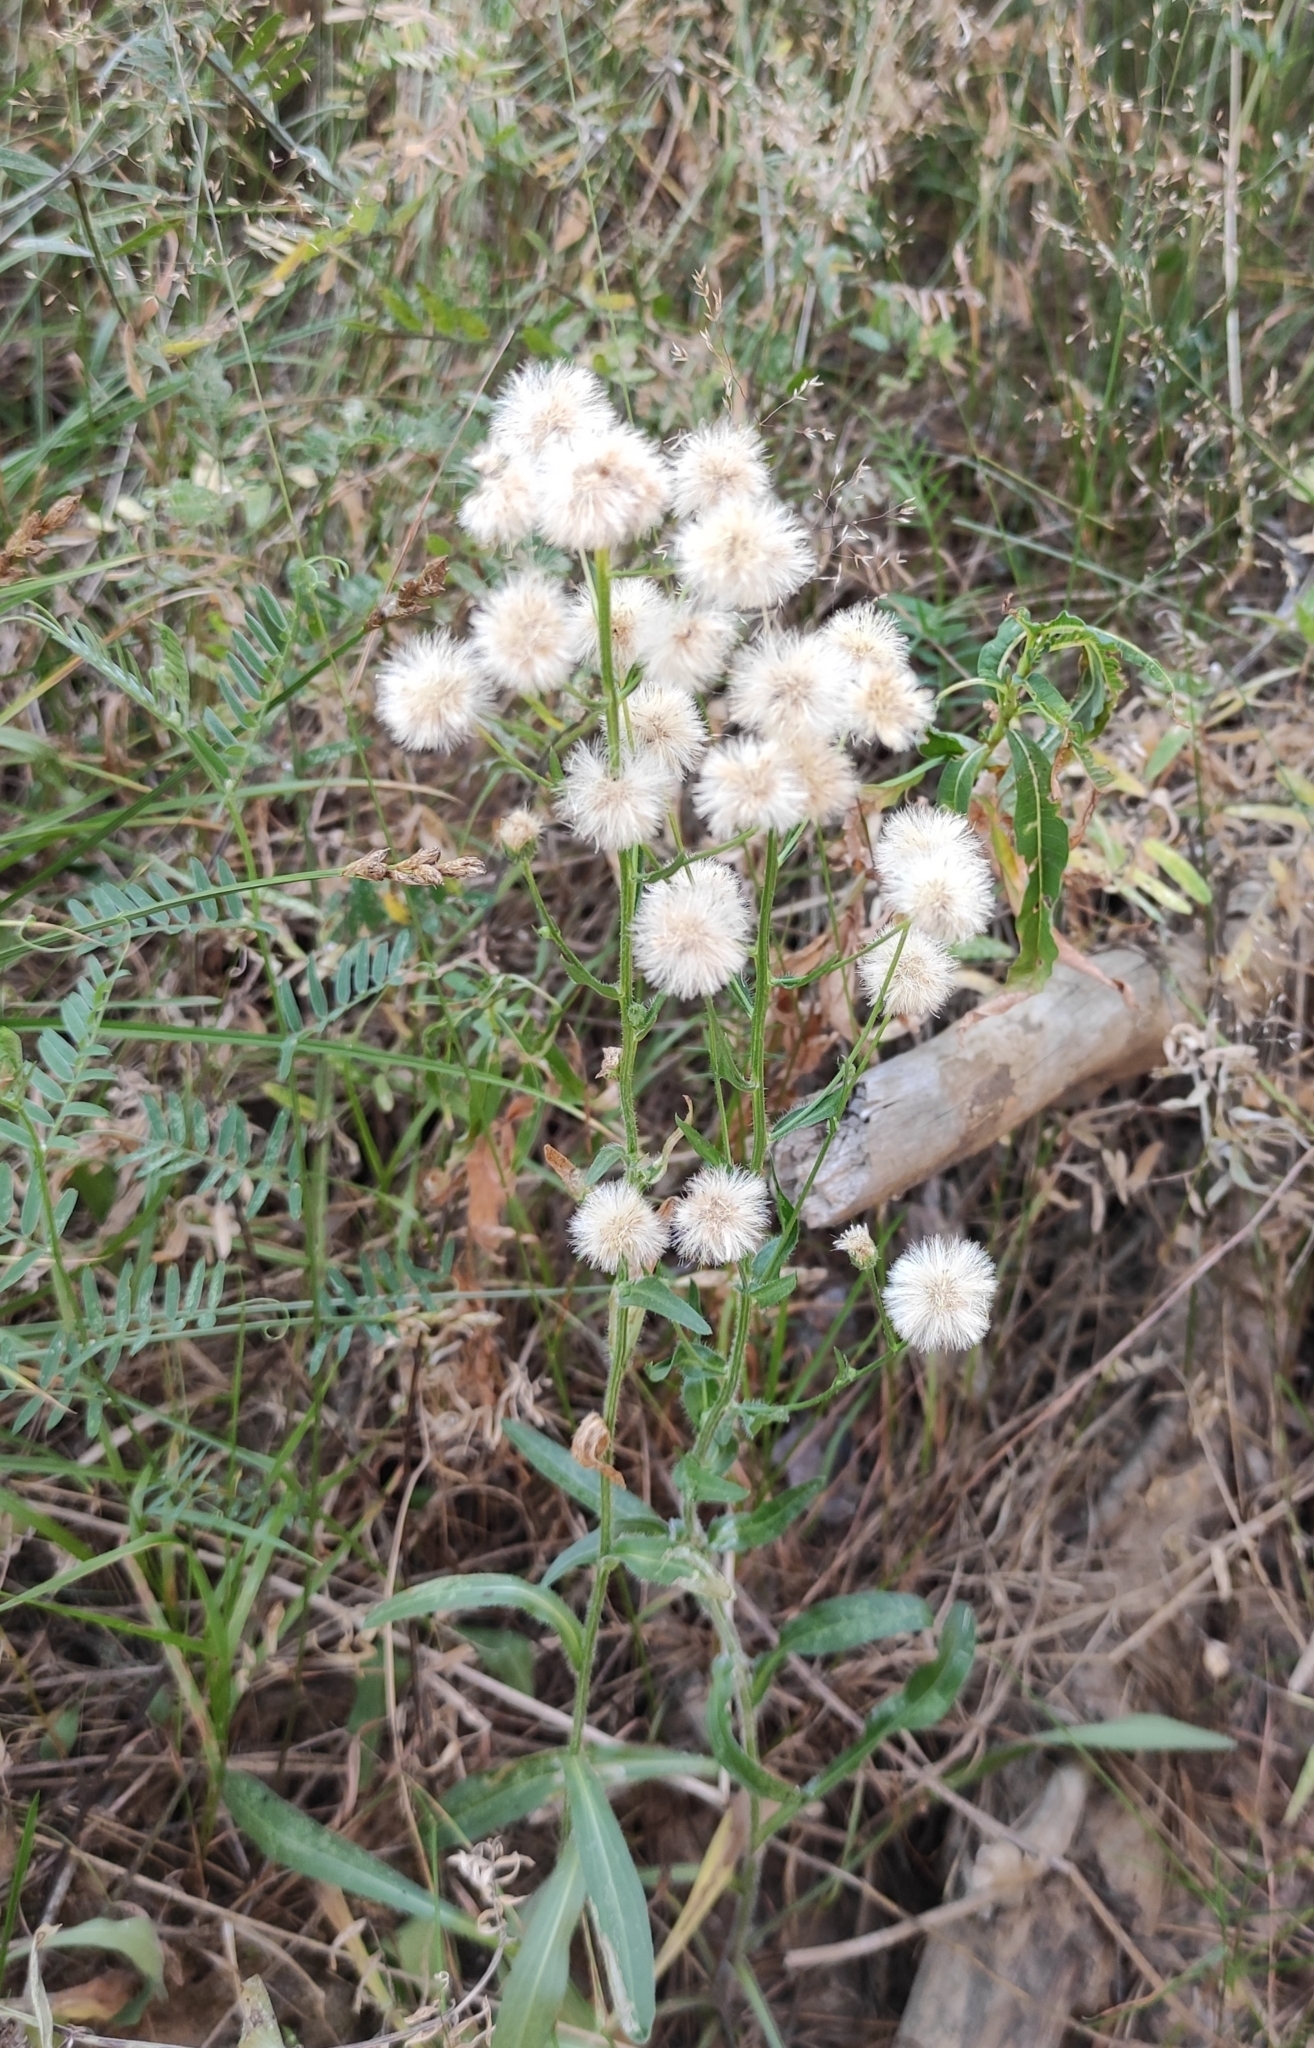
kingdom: Plantae
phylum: Tracheophyta
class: Magnoliopsida
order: Asterales
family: Asteraceae
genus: Erigeron
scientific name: Erigeron acris
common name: Blue fleabane
